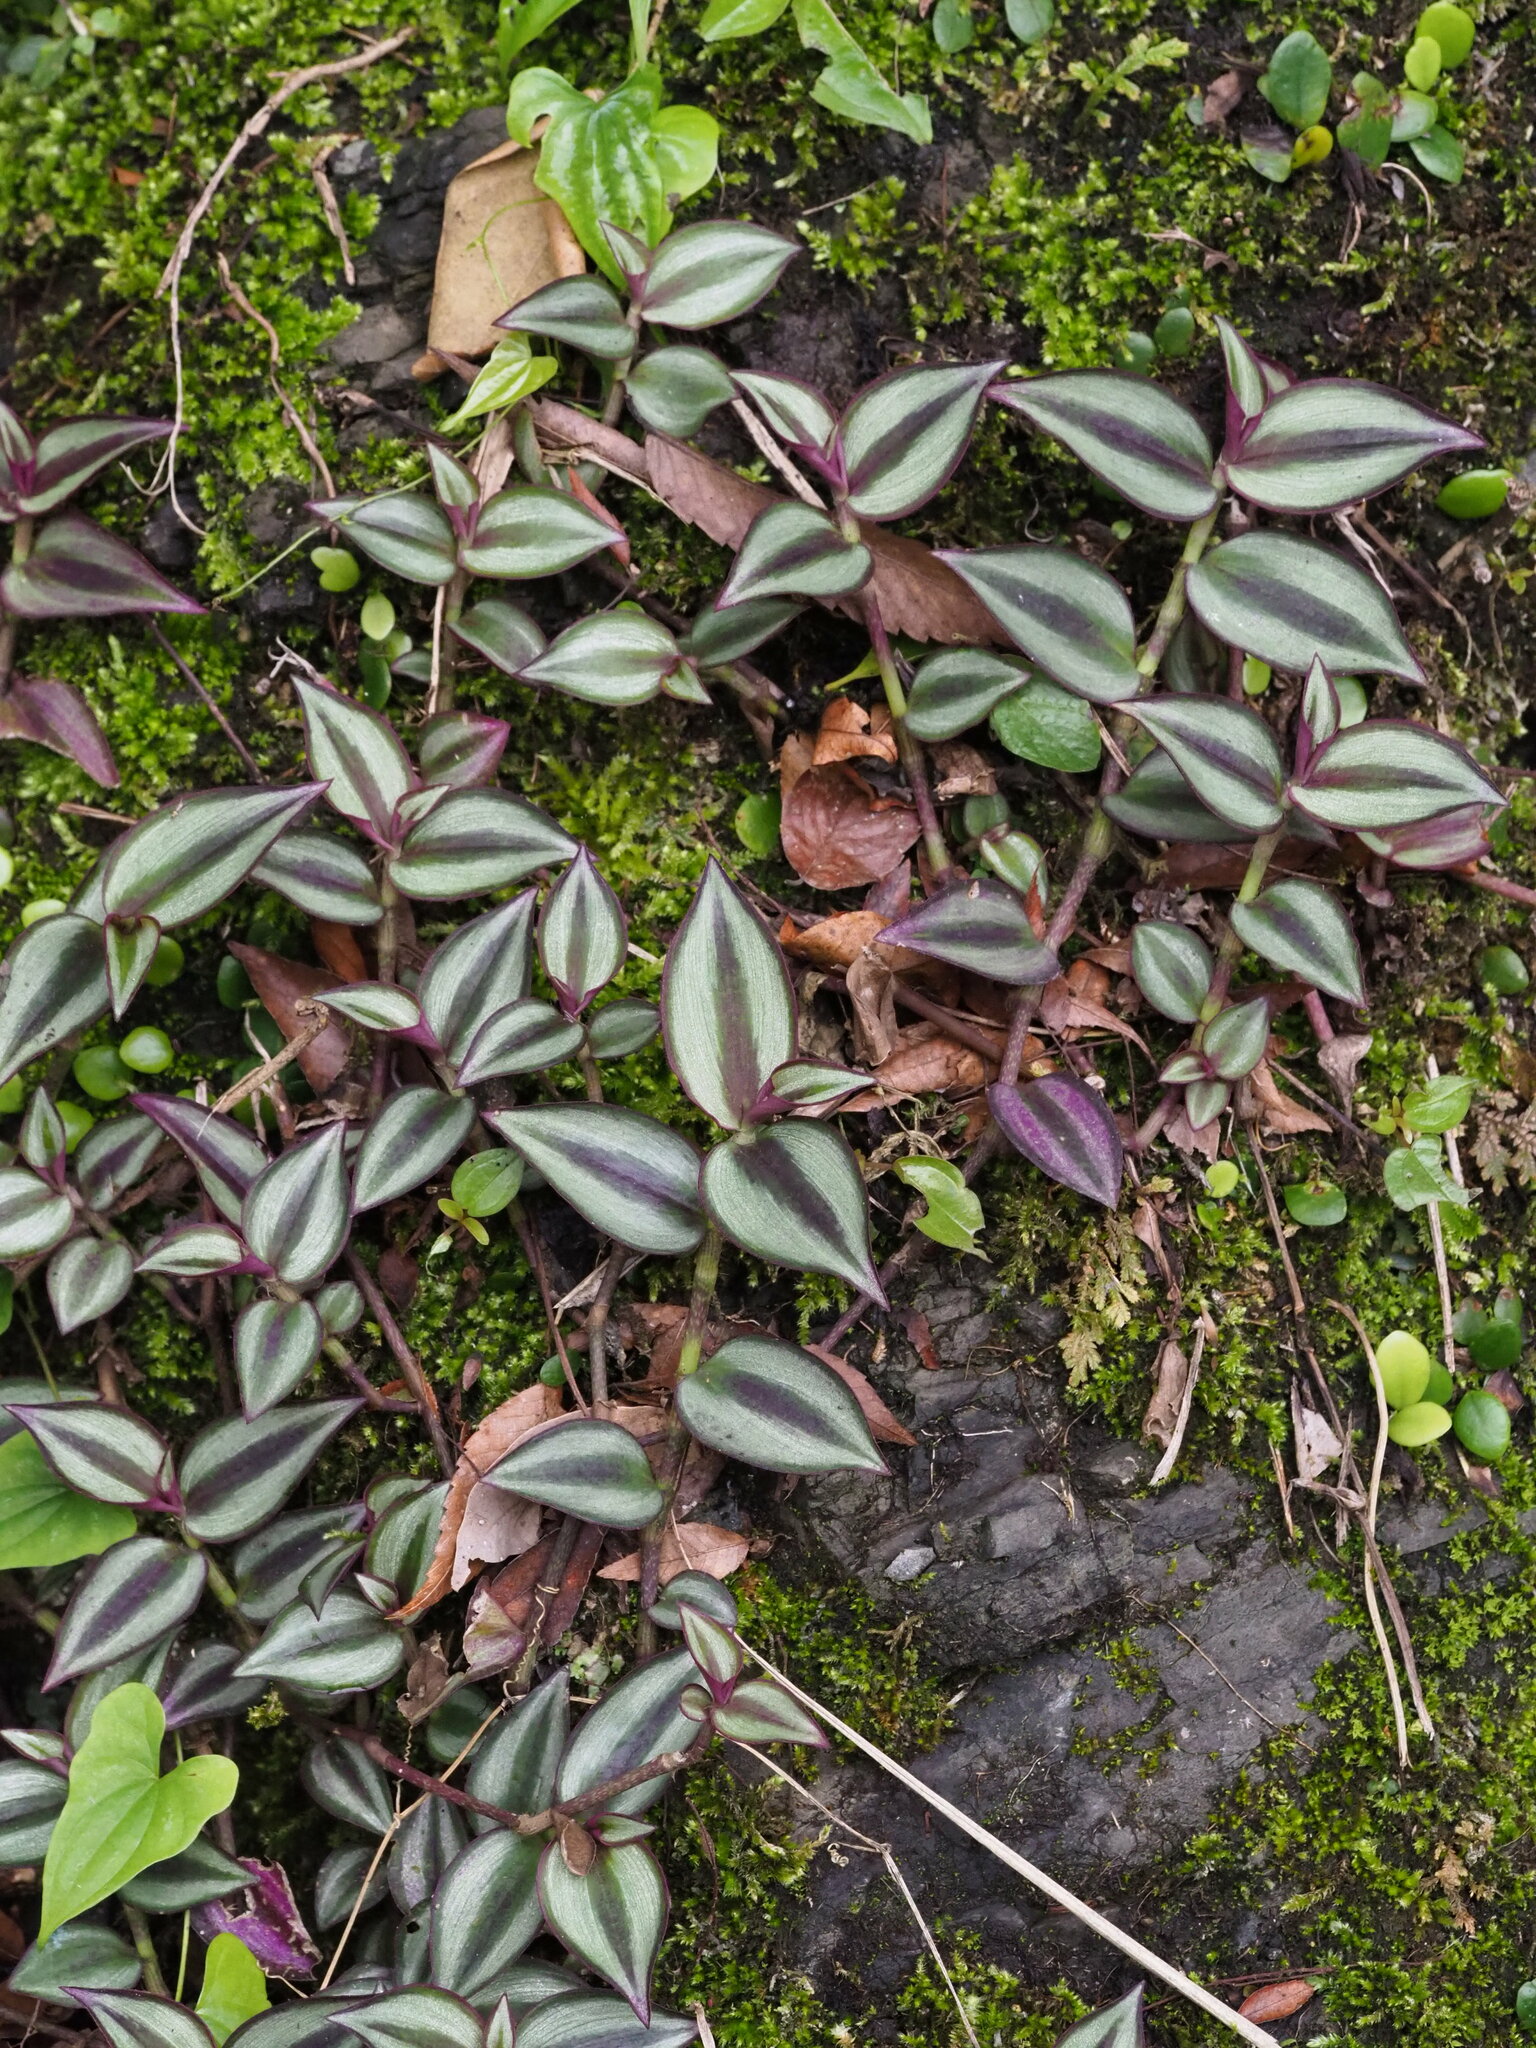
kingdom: Plantae
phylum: Tracheophyta
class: Liliopsida
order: Commelinales
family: Commelinaceae
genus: Tradescantia
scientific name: Tradescantia zebrina
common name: Inchplant
